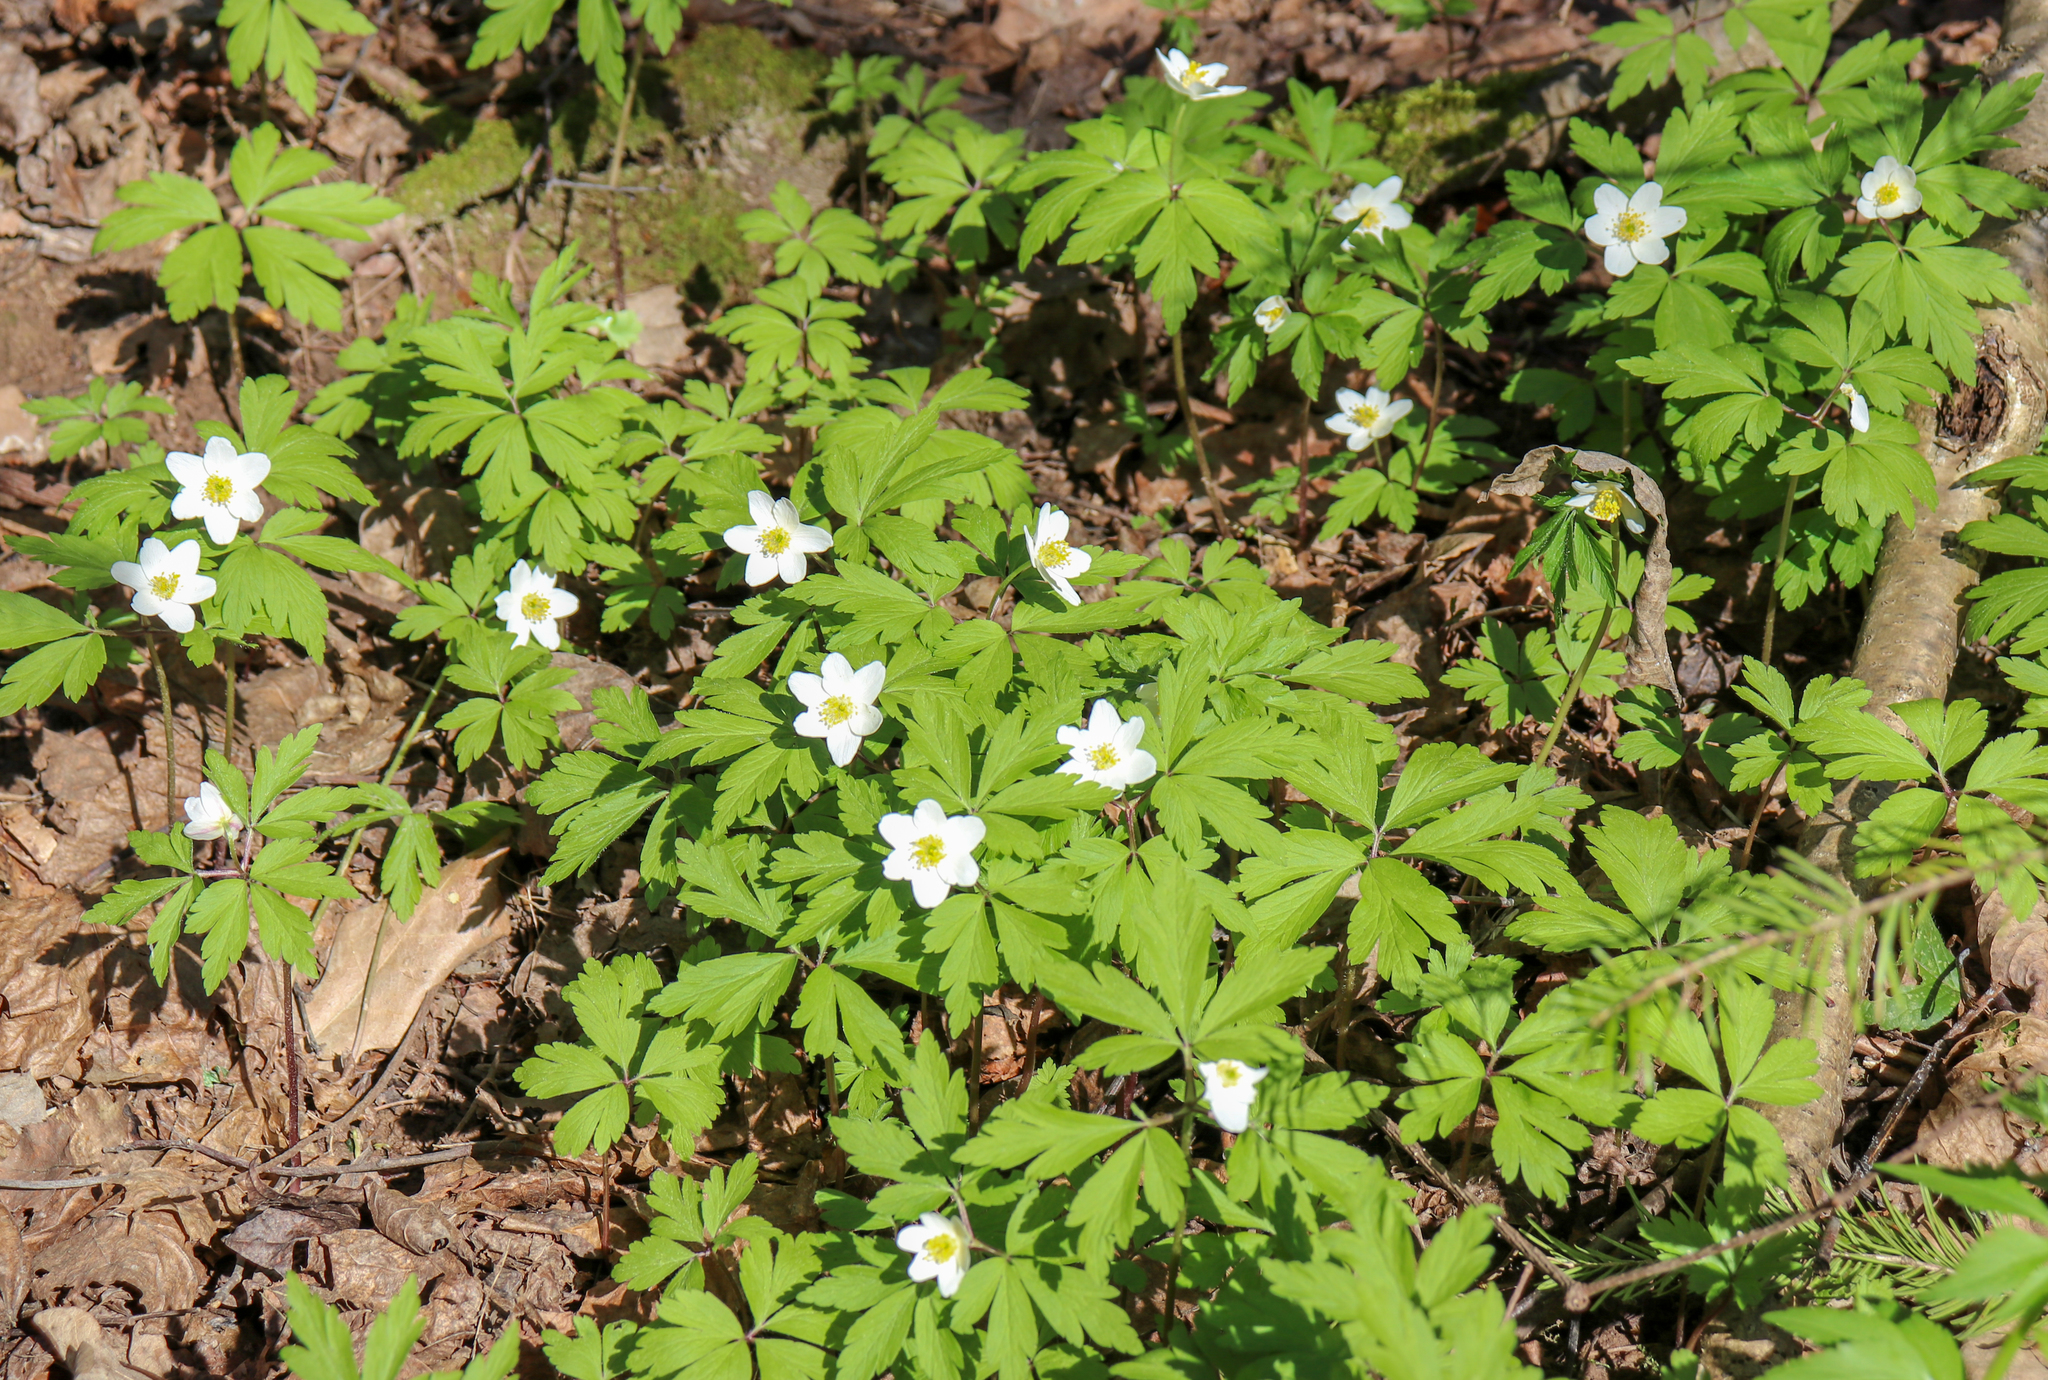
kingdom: Plantae
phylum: Tracheophyta
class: Magnoliopsida
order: Ranunculales
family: Ranunculaceae
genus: Anemone
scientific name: Anemone nemorosa
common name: Wood anemone
